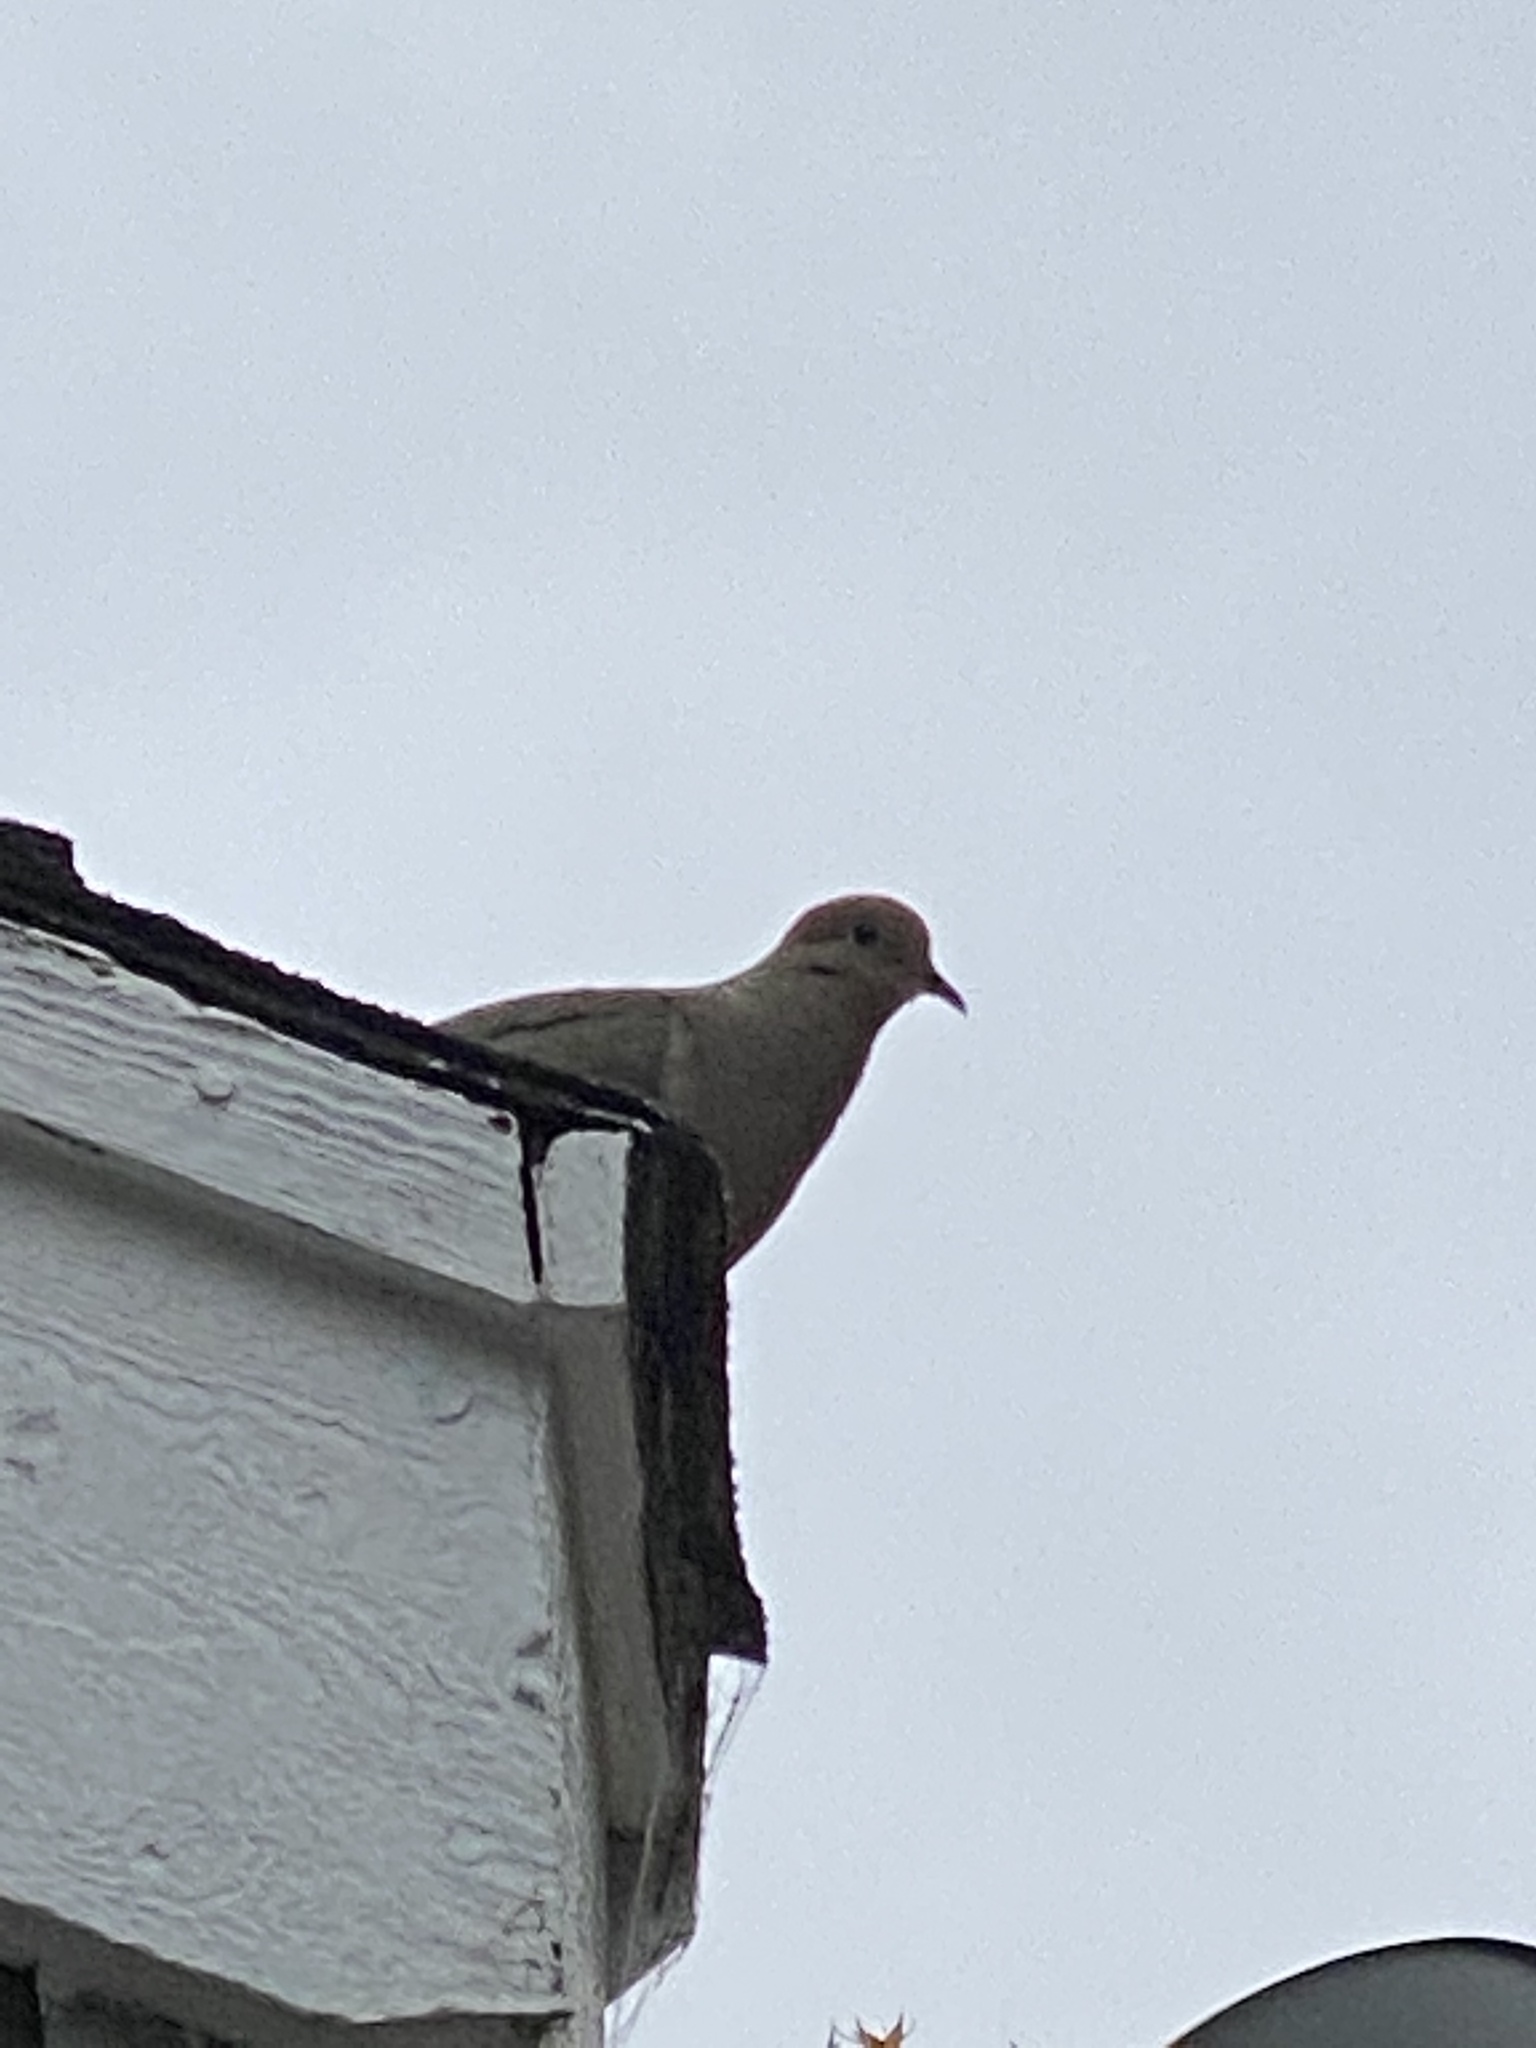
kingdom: Animalia
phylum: Chordata
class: Aves
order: Columbiformes
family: Columbidae
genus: Zenaida
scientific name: Zenaida macroura
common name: Mourning dove
